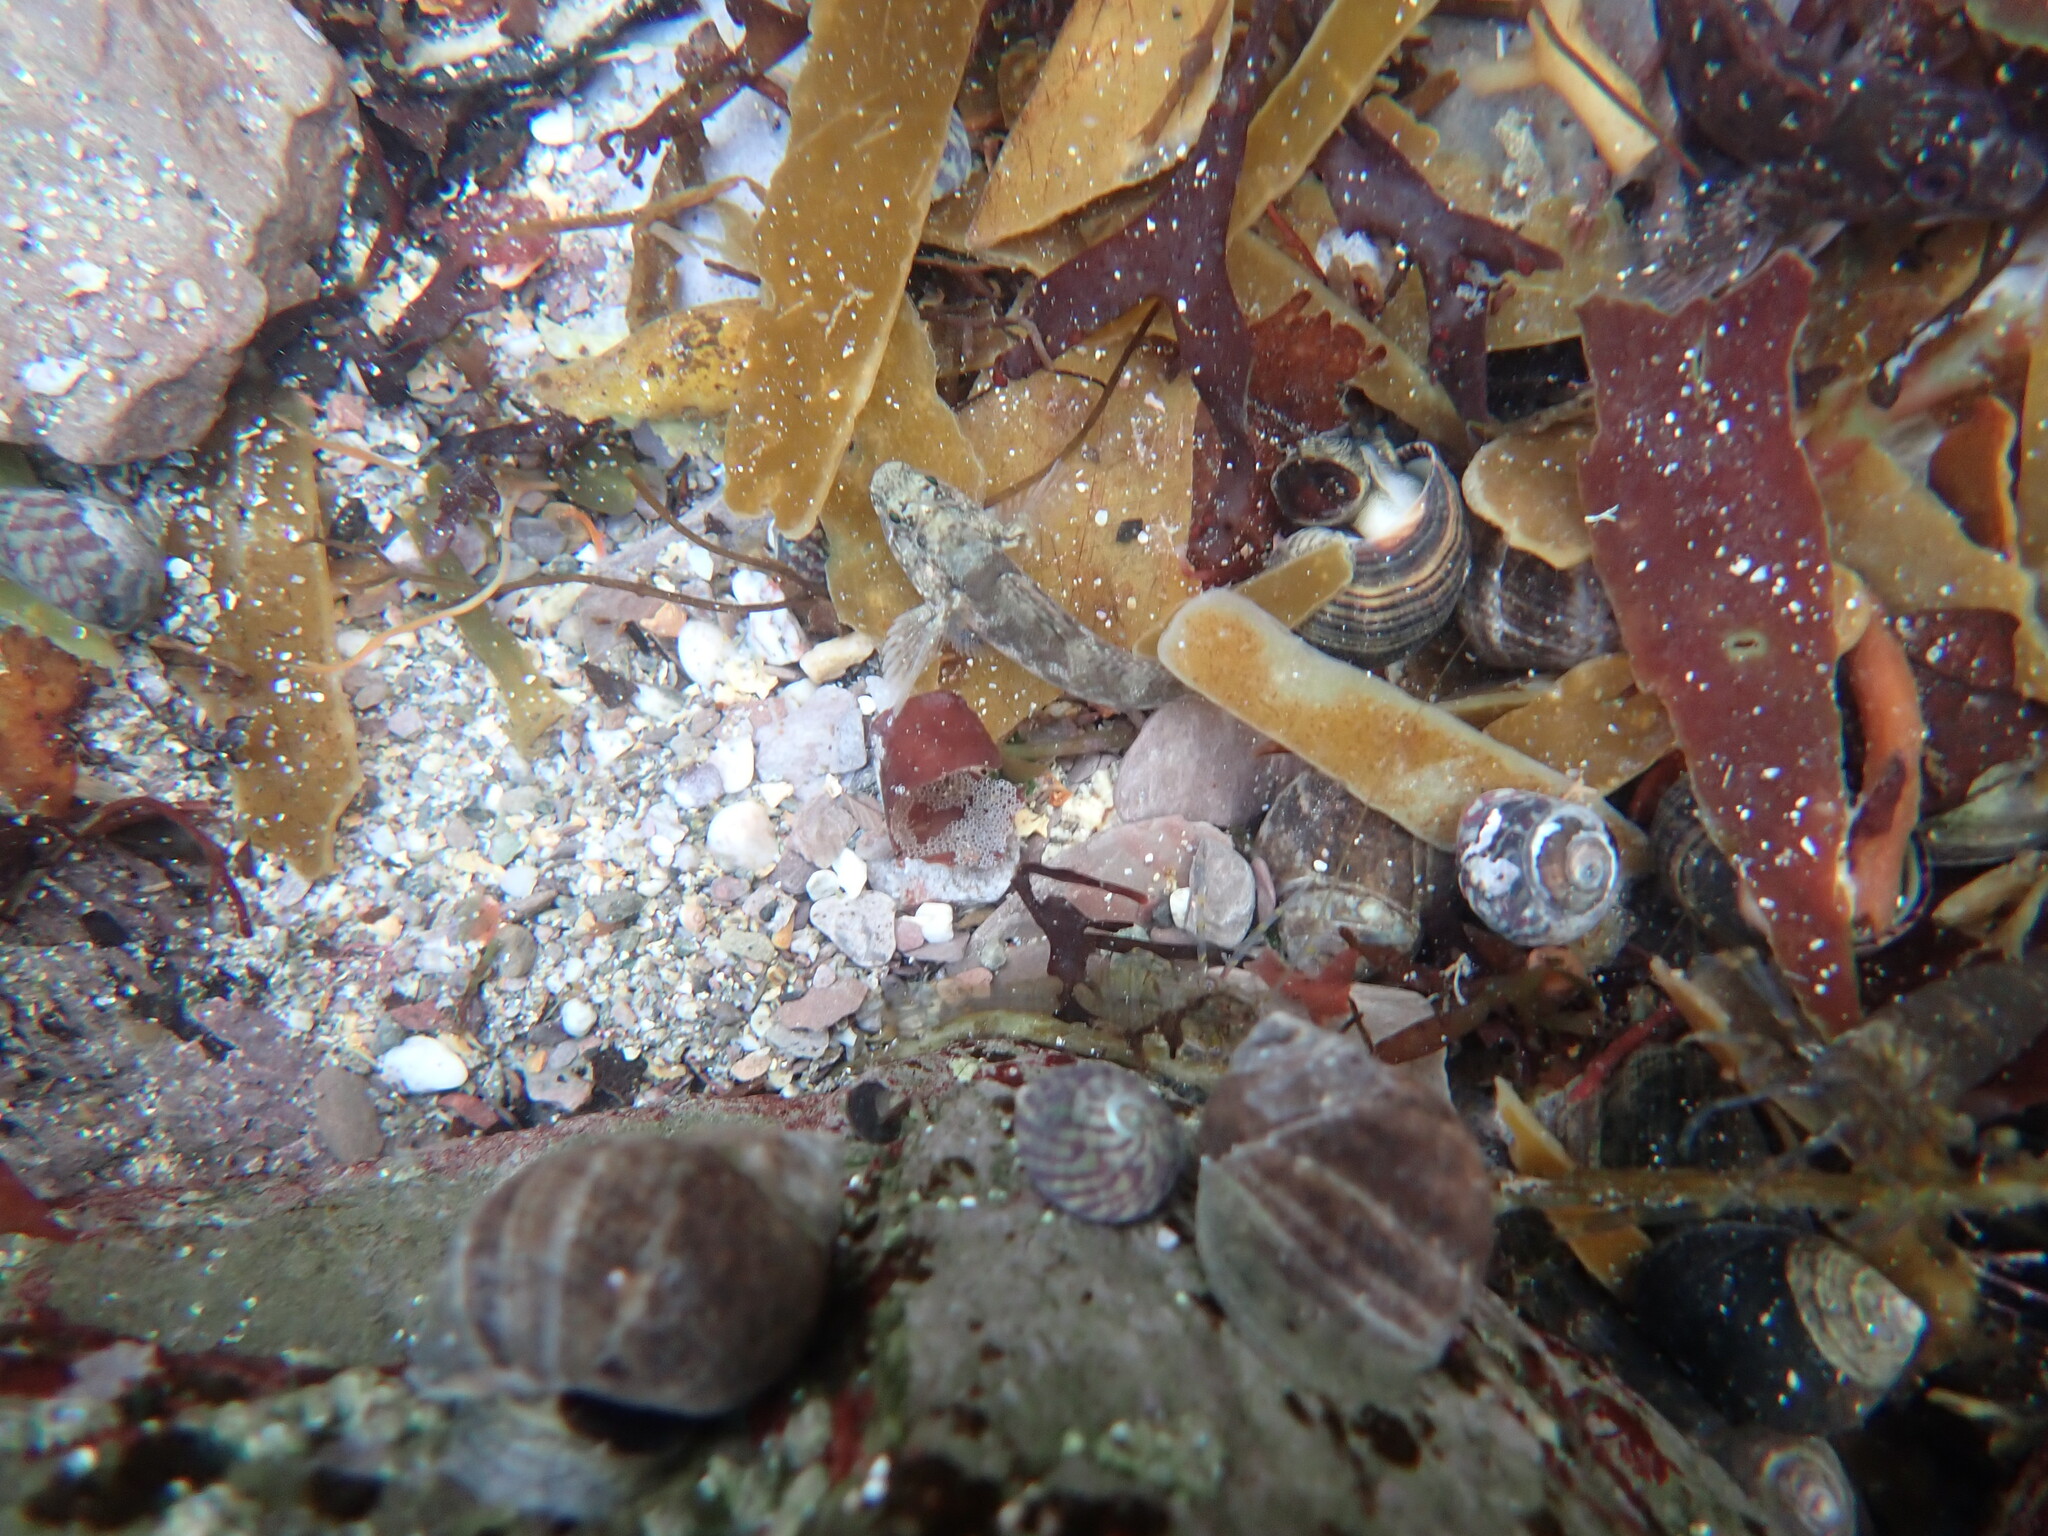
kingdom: Animalia
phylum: Chordata
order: Perciformes
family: Gobiidae
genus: Gobius
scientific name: Gobius paganellus
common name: Rock goby
